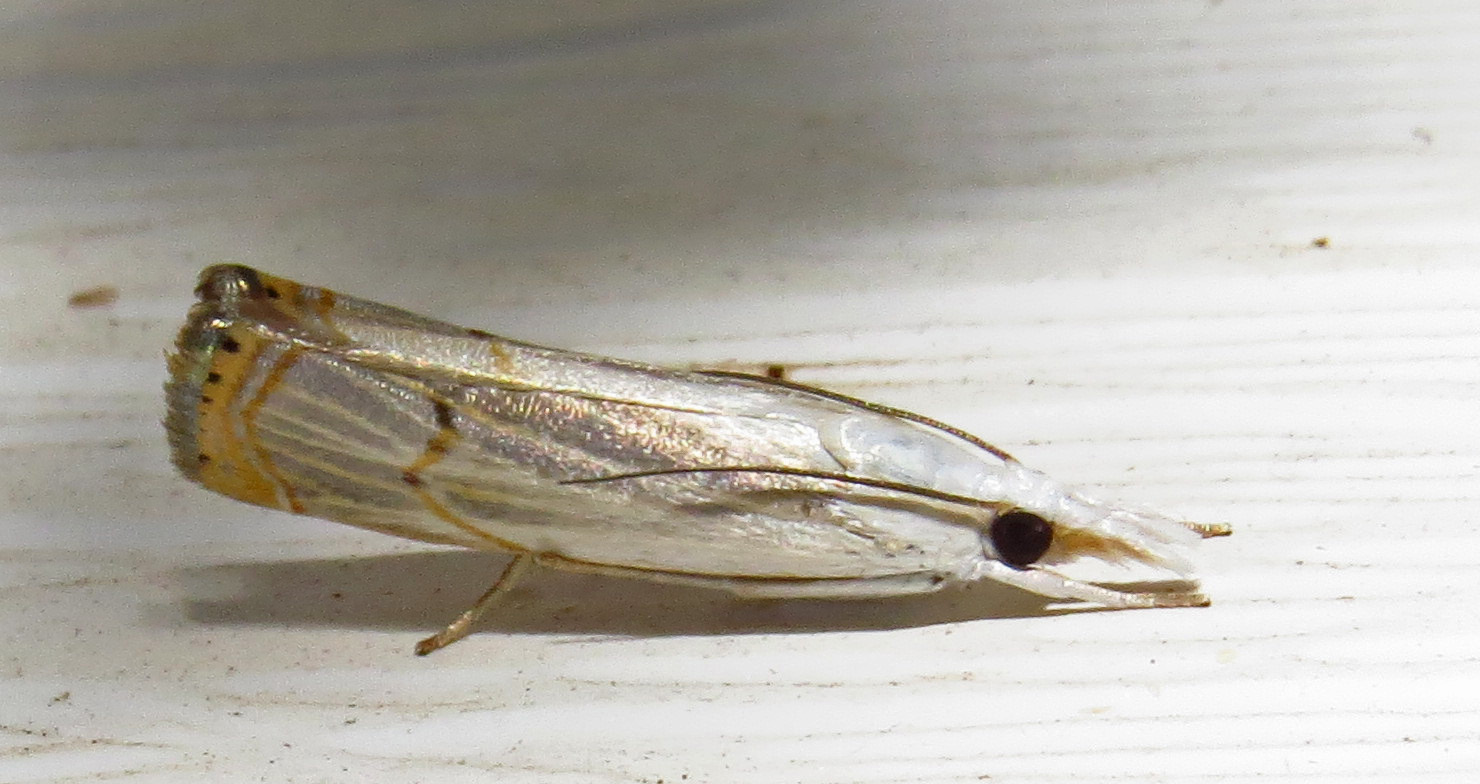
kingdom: Animalia
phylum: Arthropoda
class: Insecta
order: Lepidoptera
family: Crambidae
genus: Parapediasia
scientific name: Parapediasia decorellus
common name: Graceful grass-veneer
